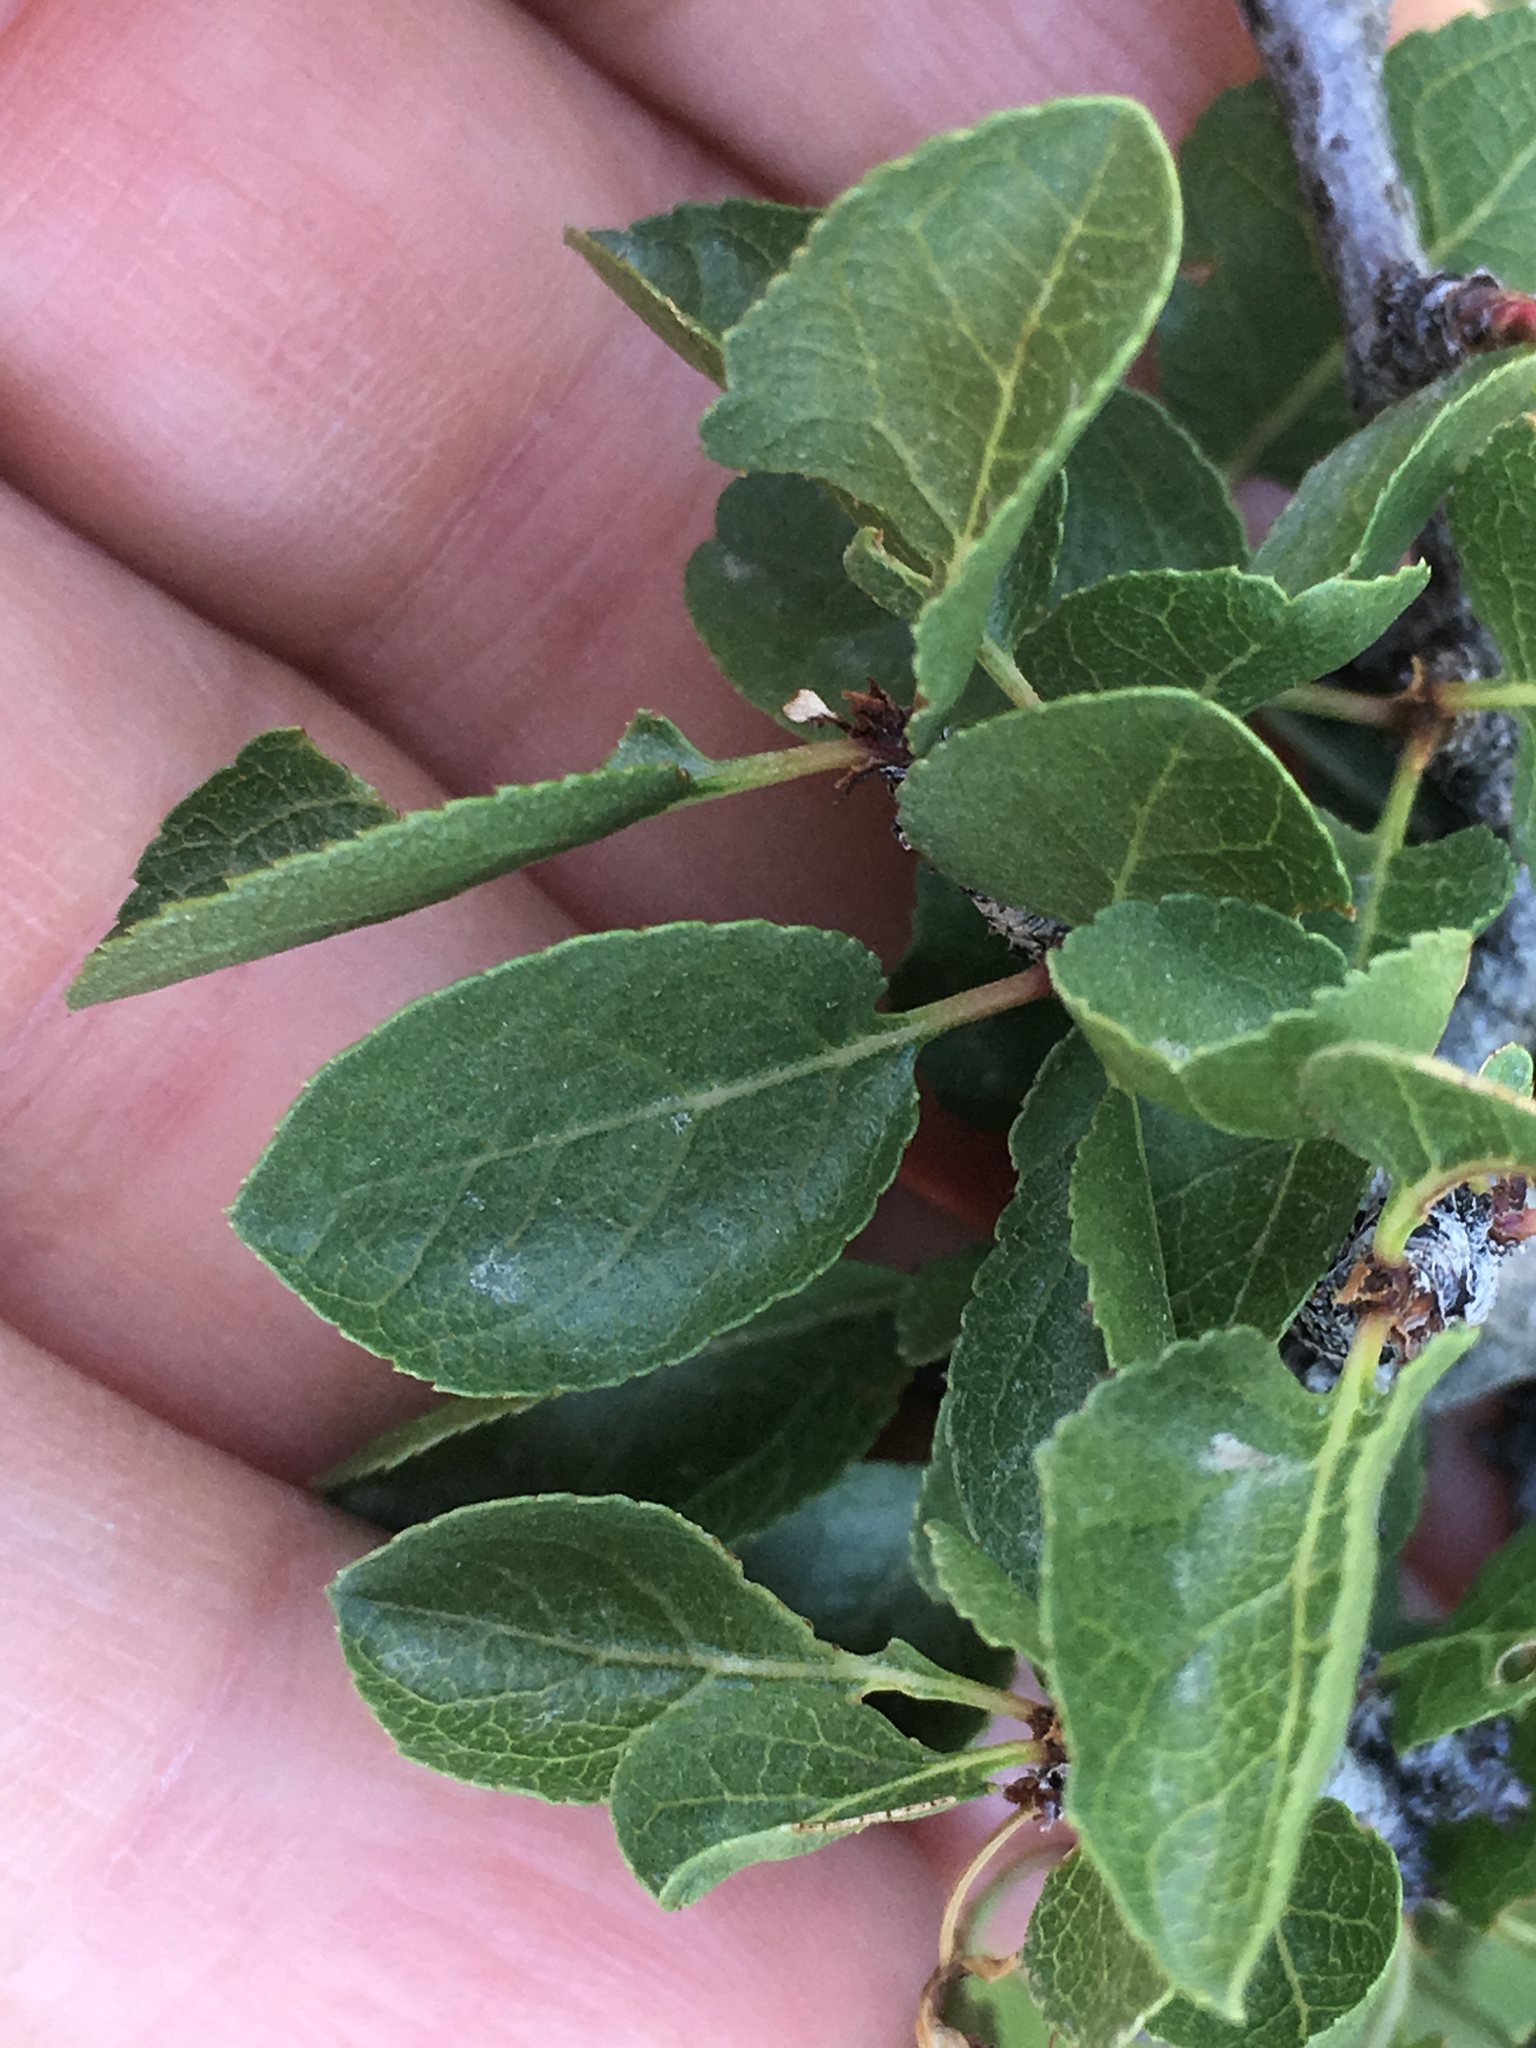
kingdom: Plantae
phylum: Tracheophyta
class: Magnoliopsida
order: Rosales
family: Rosaceae
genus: Prunus
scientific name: Prunus fremontii
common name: Desert apricot
